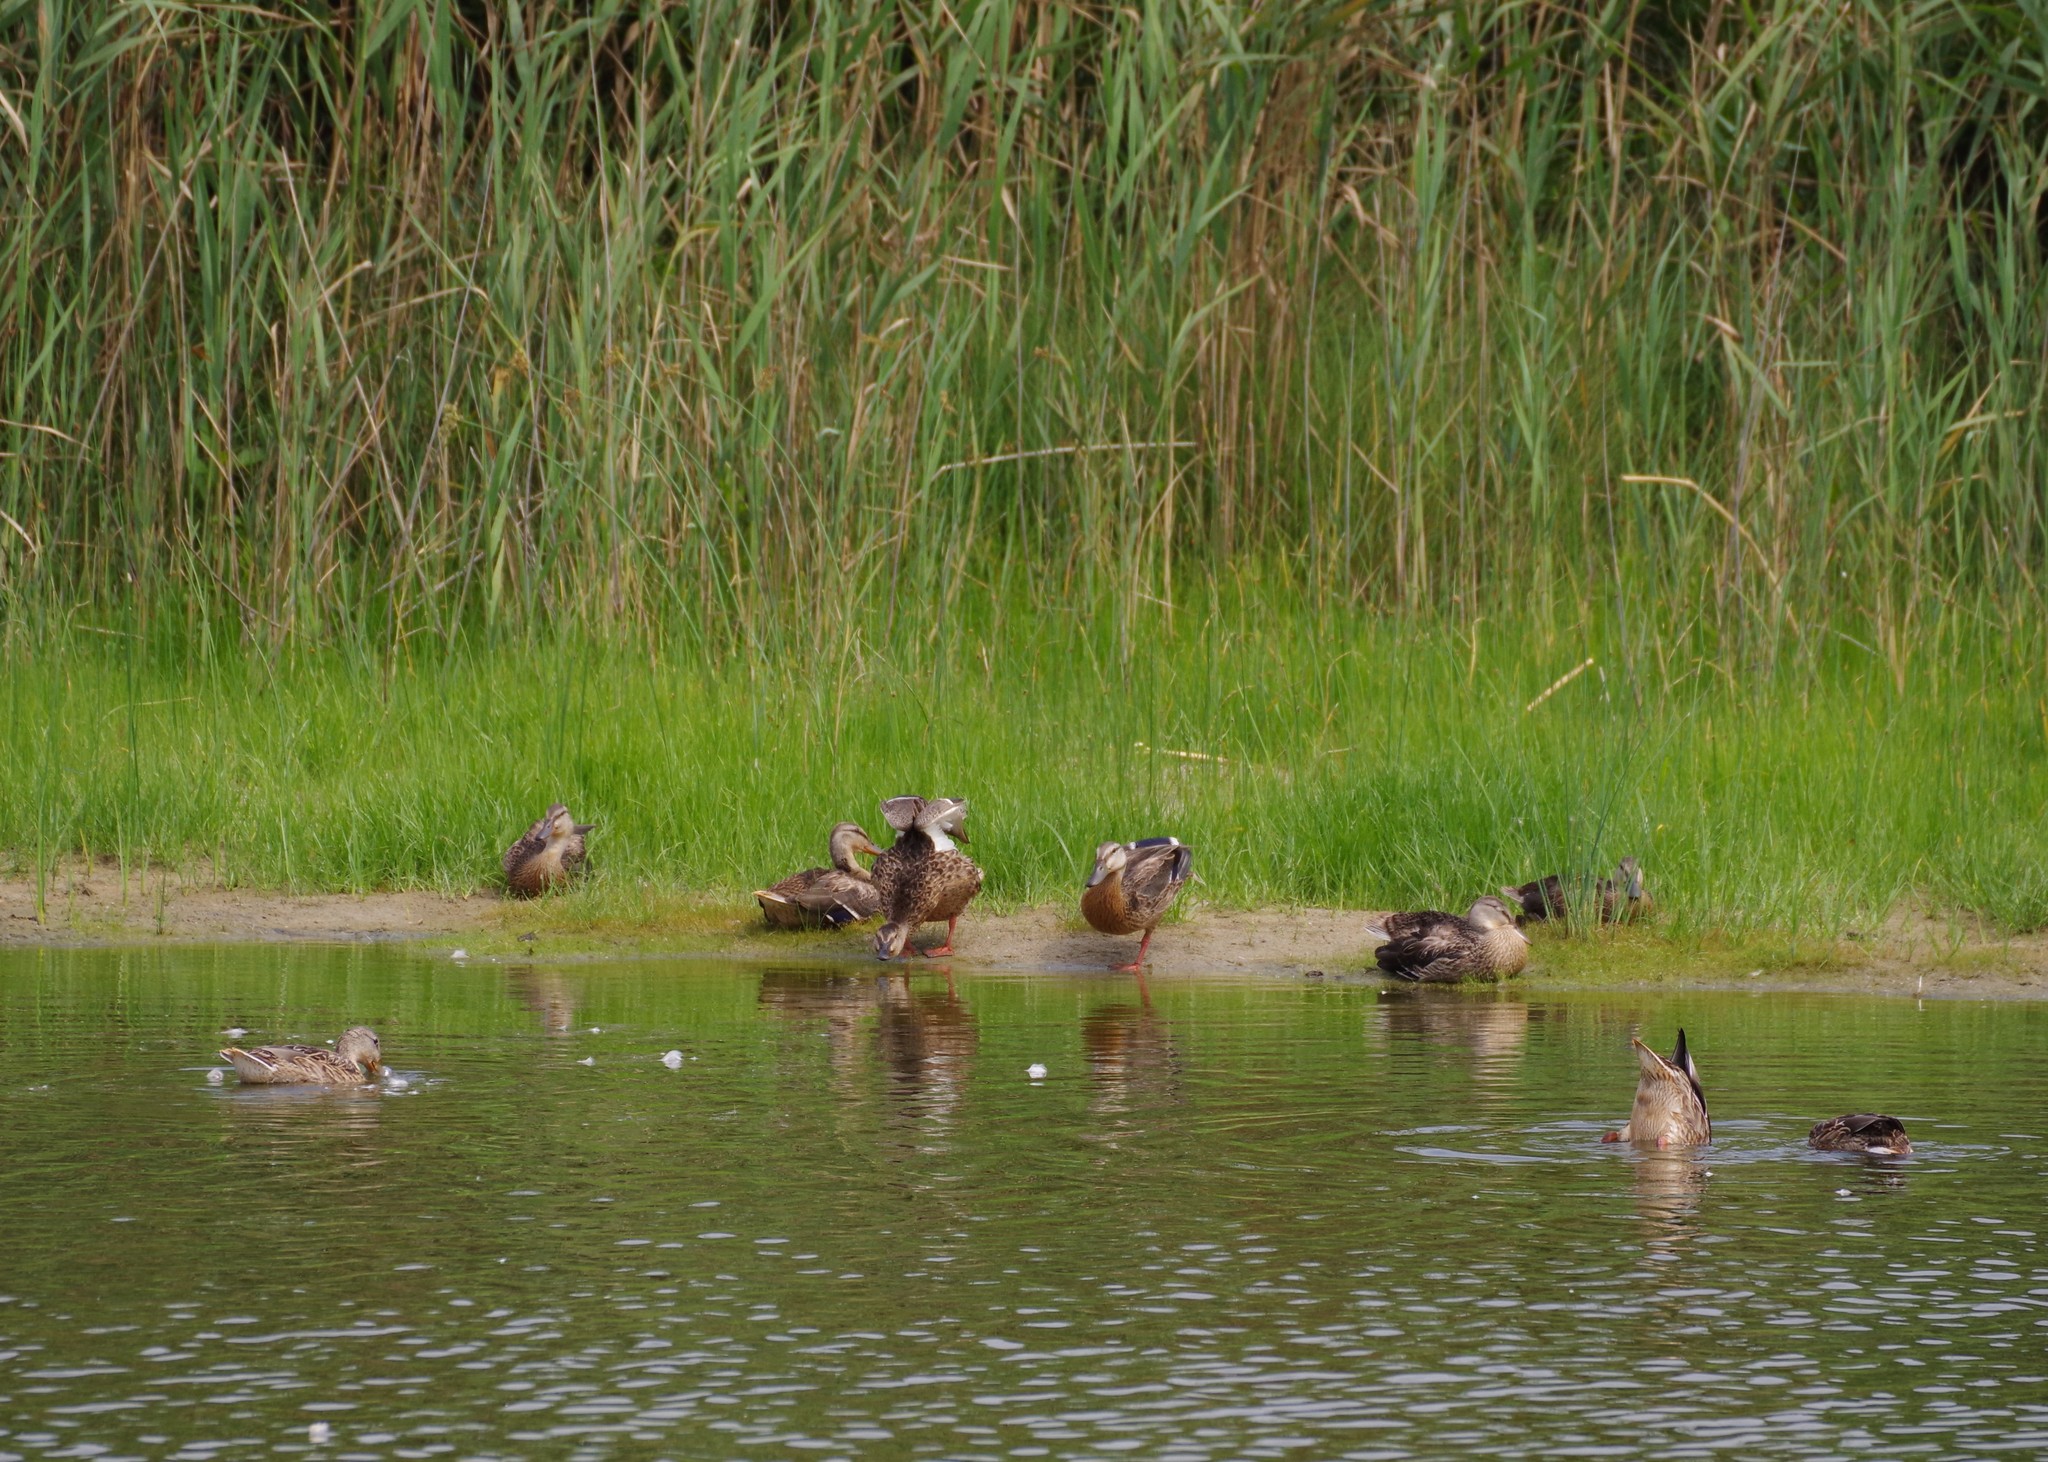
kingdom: Animalia
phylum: Chordata
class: Aves
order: Anseriformes
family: Anatidae
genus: Anas
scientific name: Anas platyrhynchos
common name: Mallard
